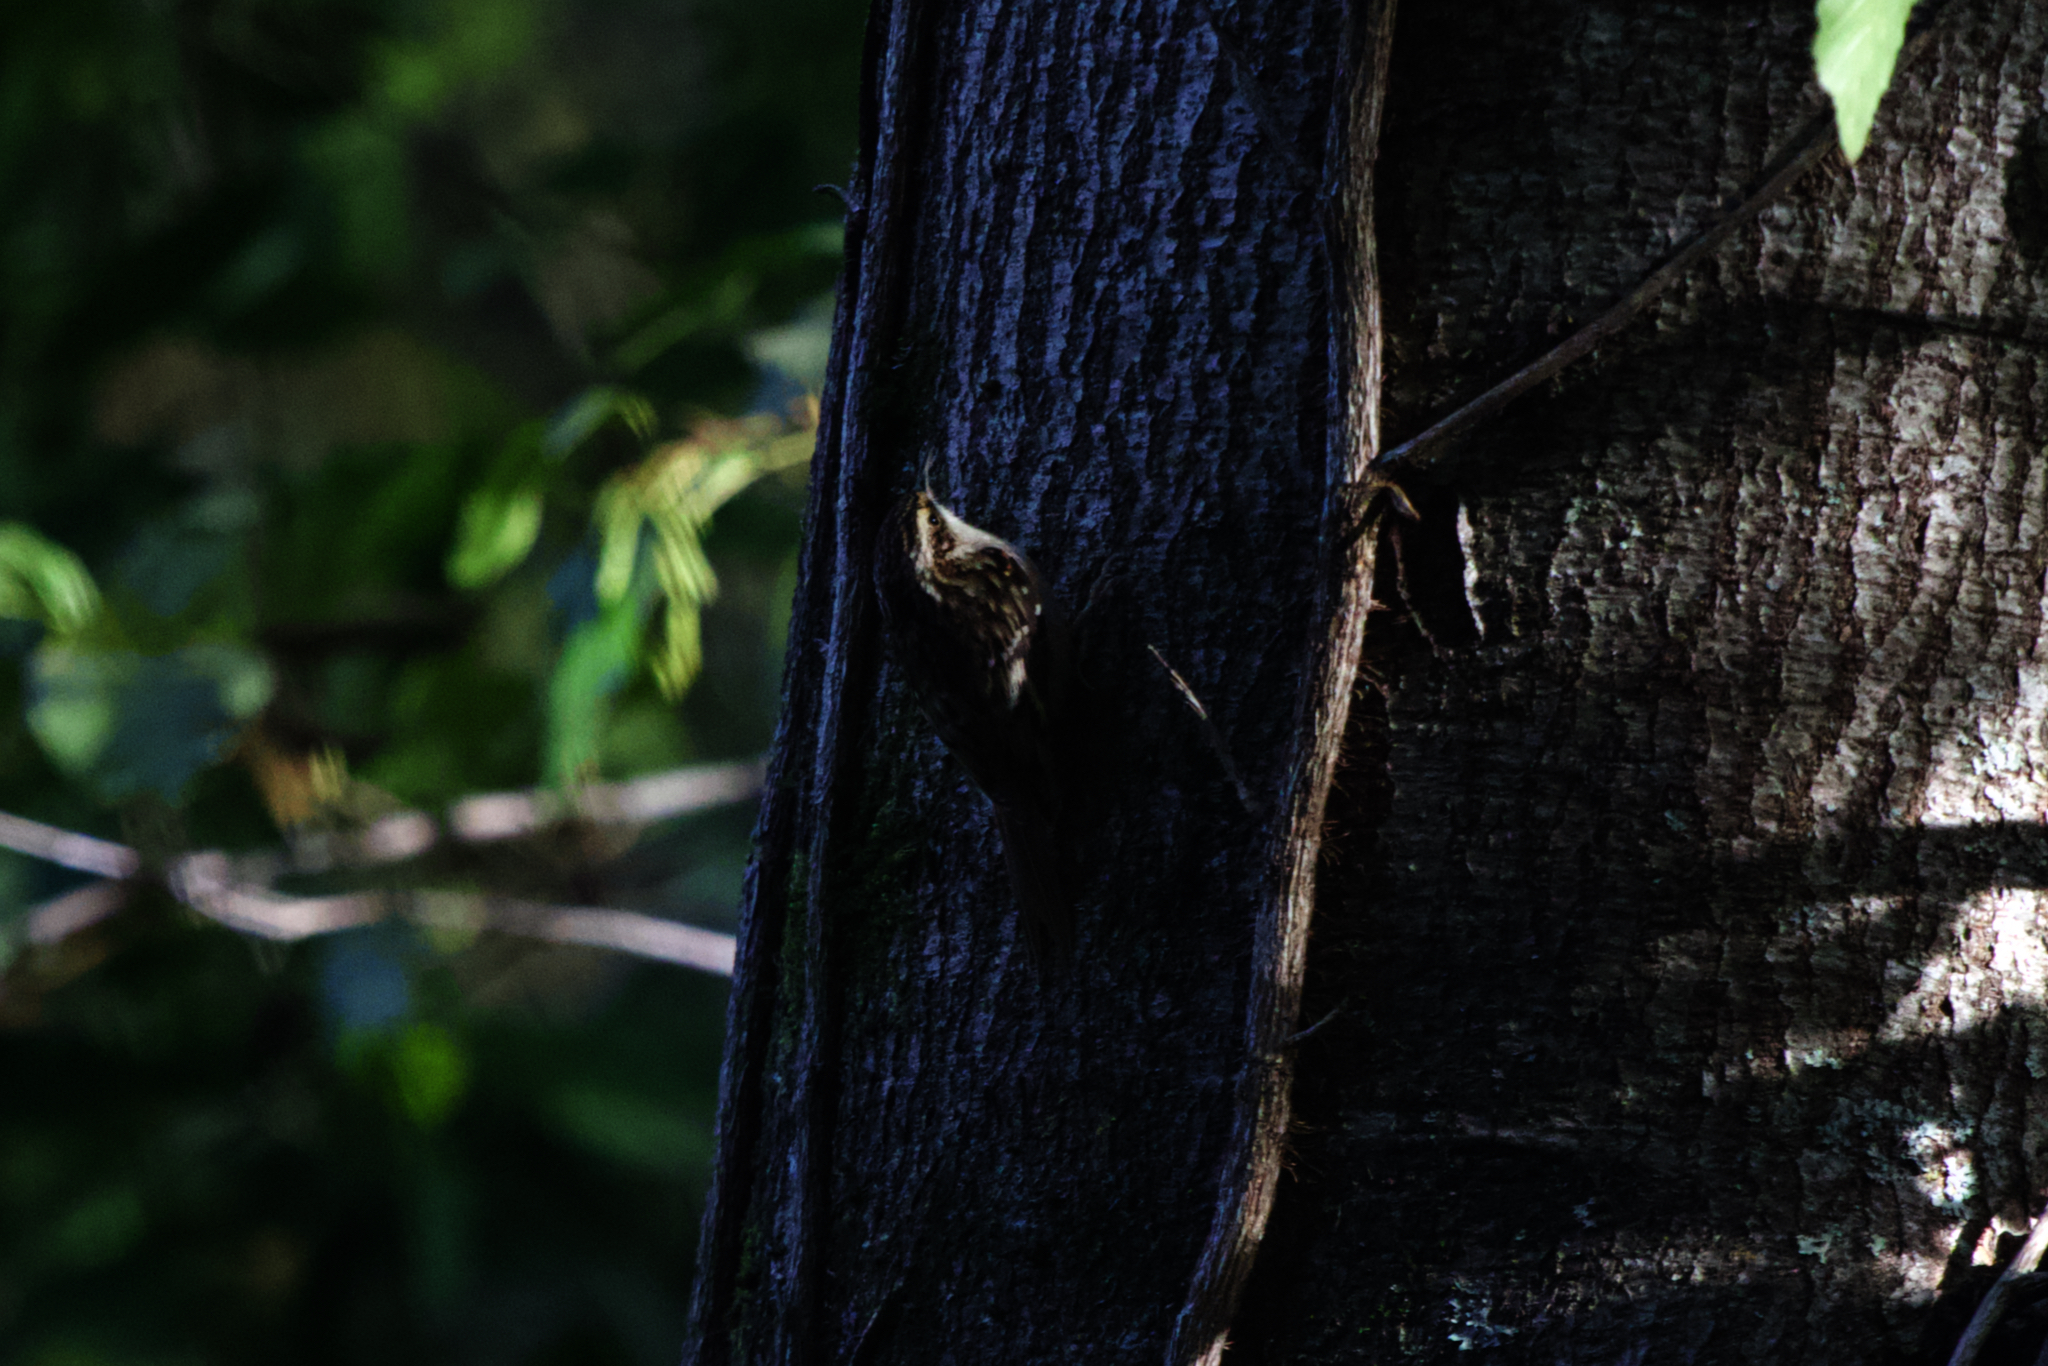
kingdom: Animalia
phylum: Chordata
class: Aves
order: Passeriformes
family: Certhiidae
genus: Certhia
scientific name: Certhia americana
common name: Brown creeper
